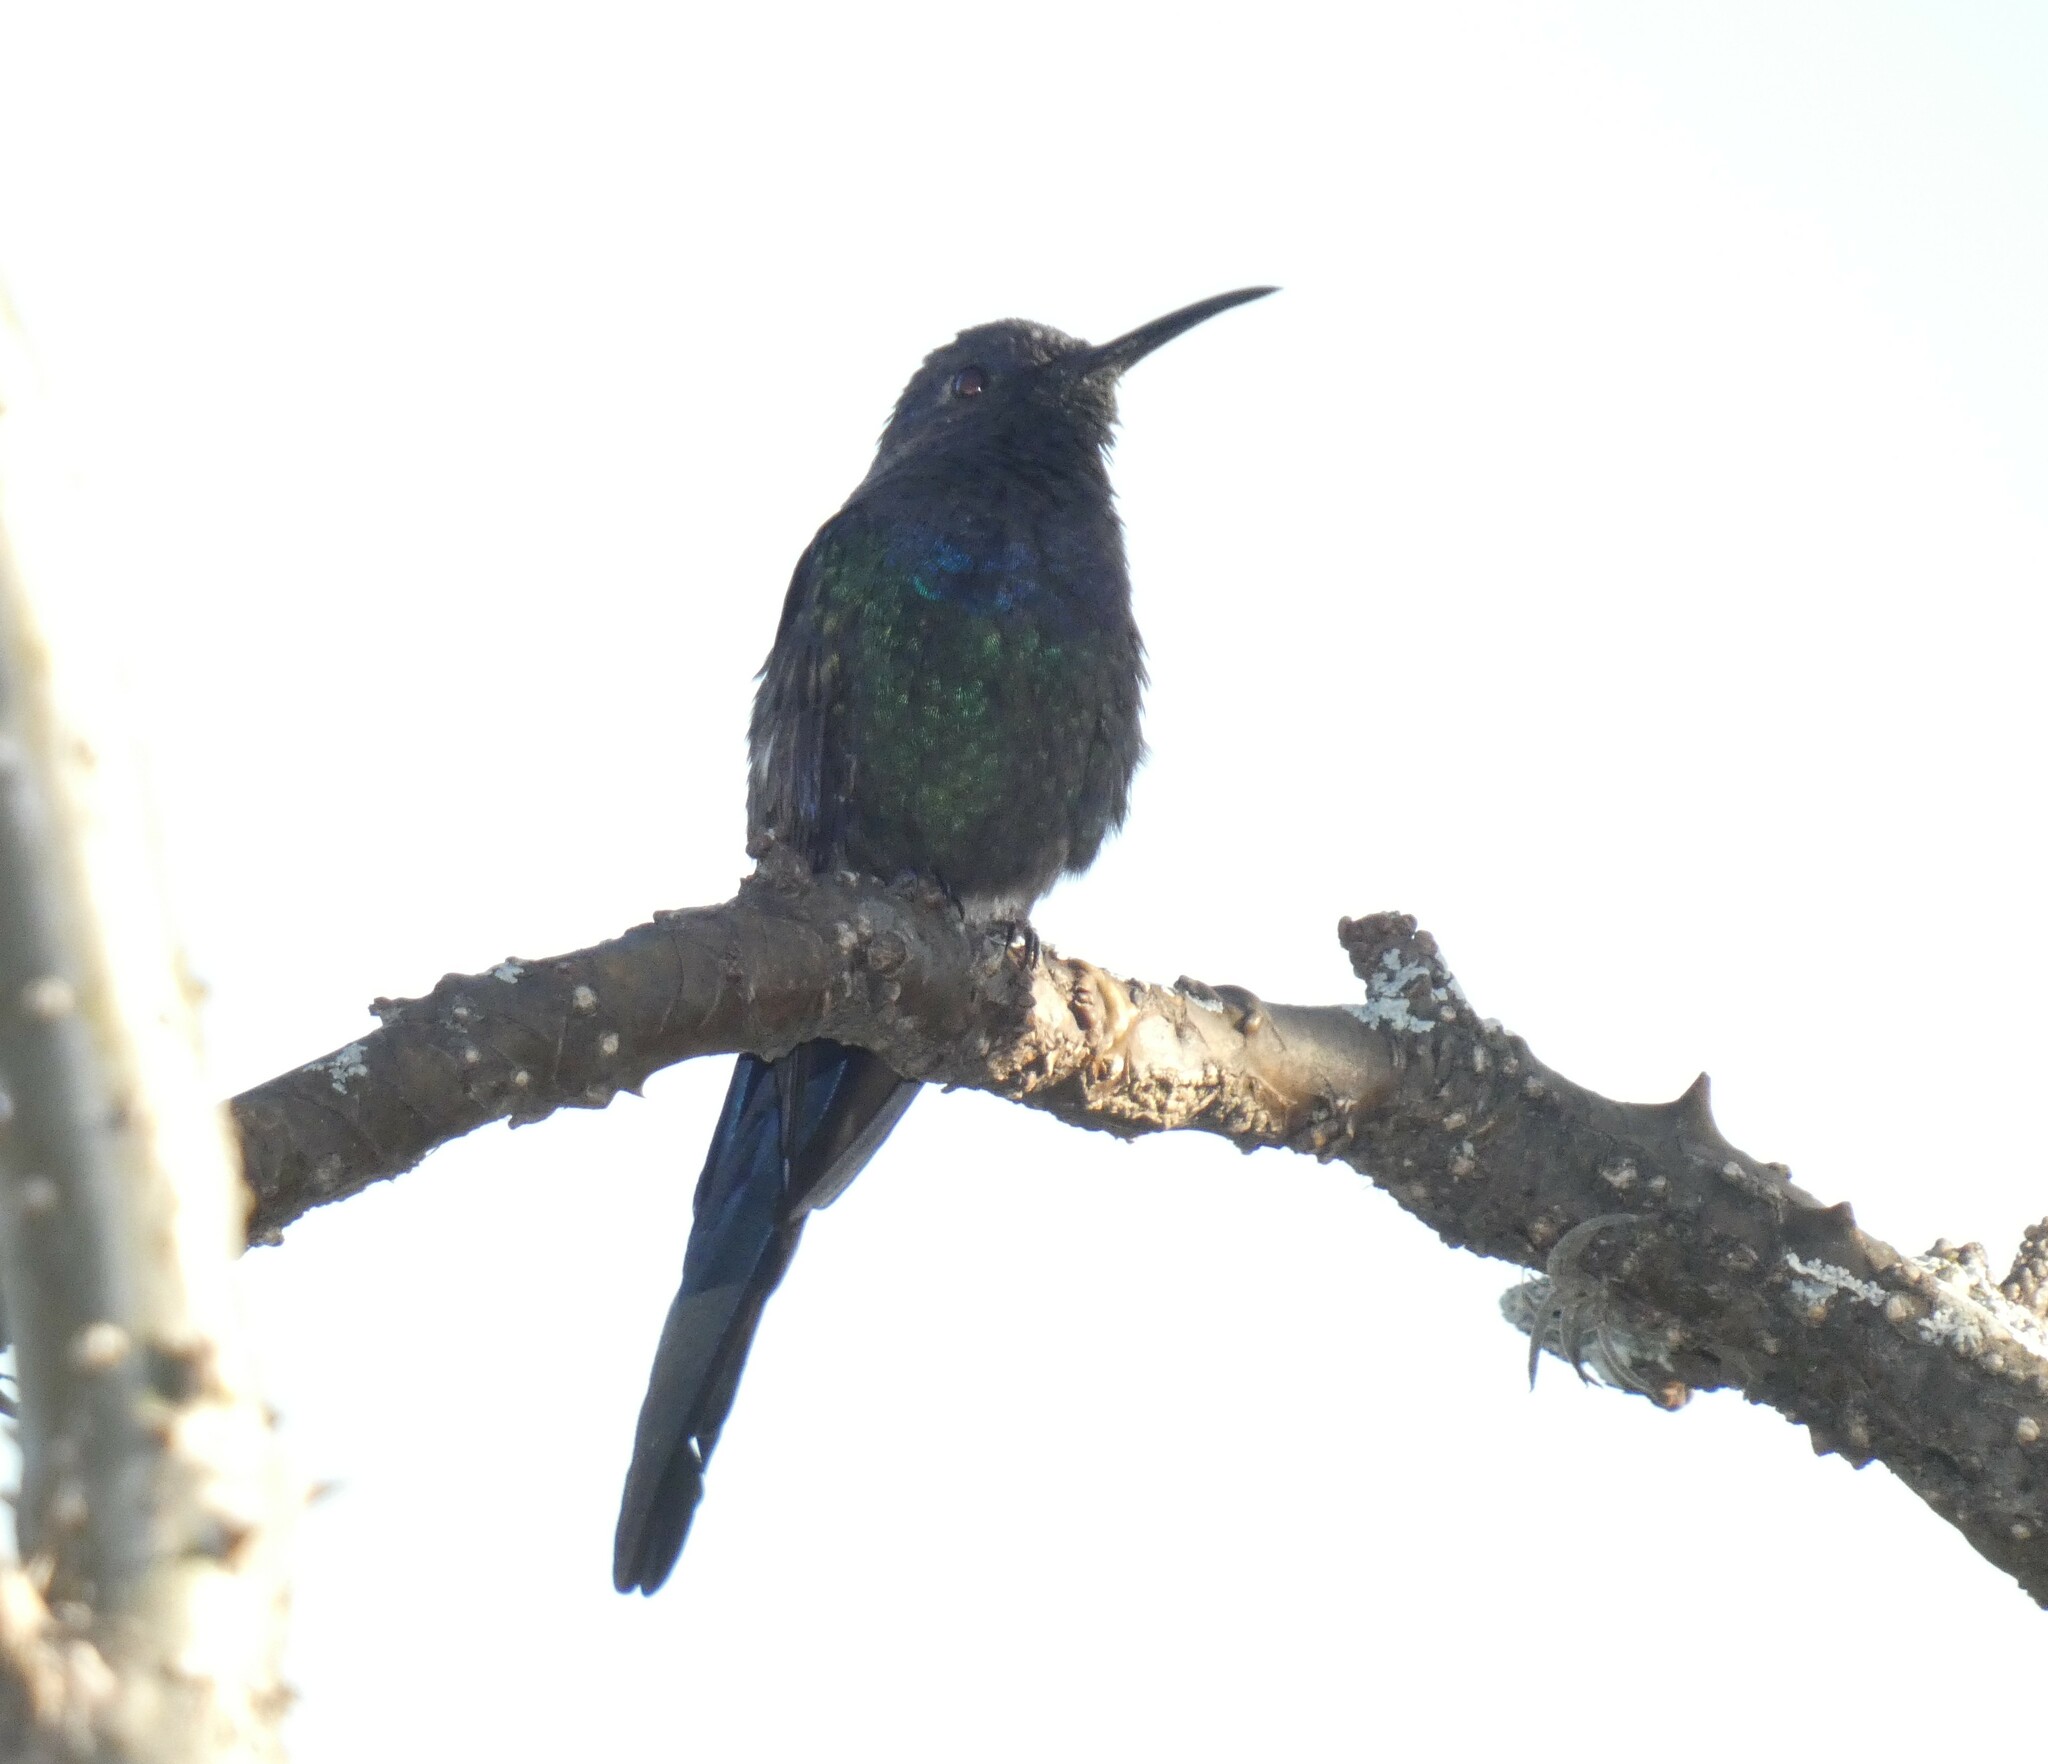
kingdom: Animalia
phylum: Chordata
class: Aves
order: Apodiformes
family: Trochilidae
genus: Eupetomena
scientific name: Eupetomena macroura
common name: Swallow-tailed hummingbird
